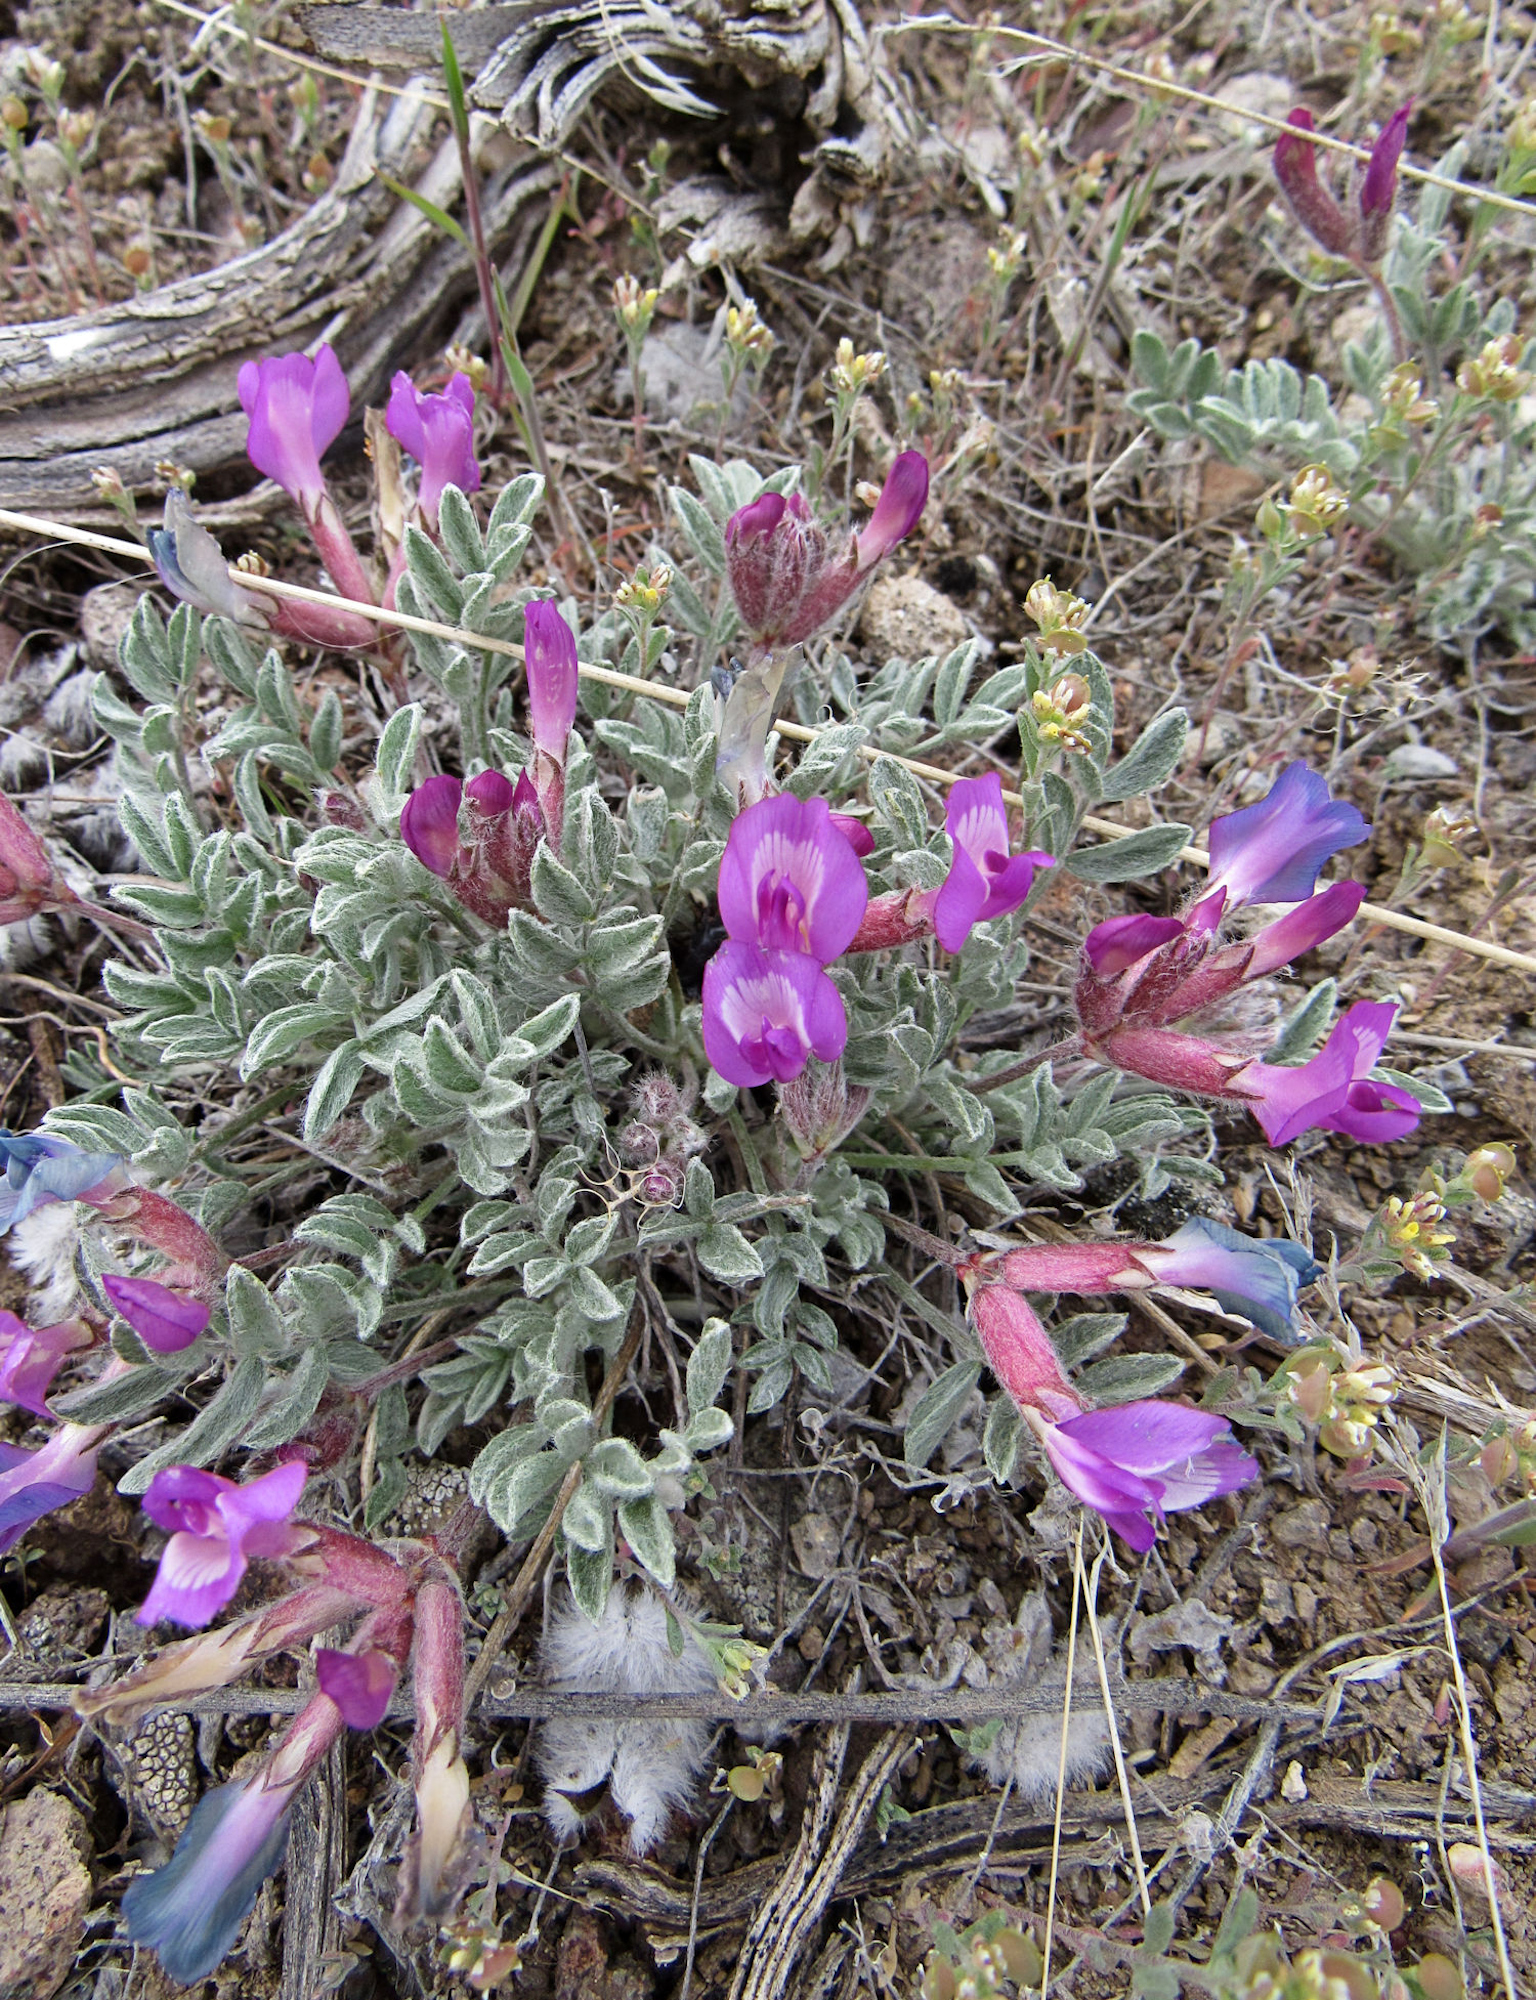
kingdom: Plantae
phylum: Tracheophyta
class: Magnoliopsida
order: Fabales
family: Fabaceae
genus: Astragalus
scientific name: Astragalus purshii
